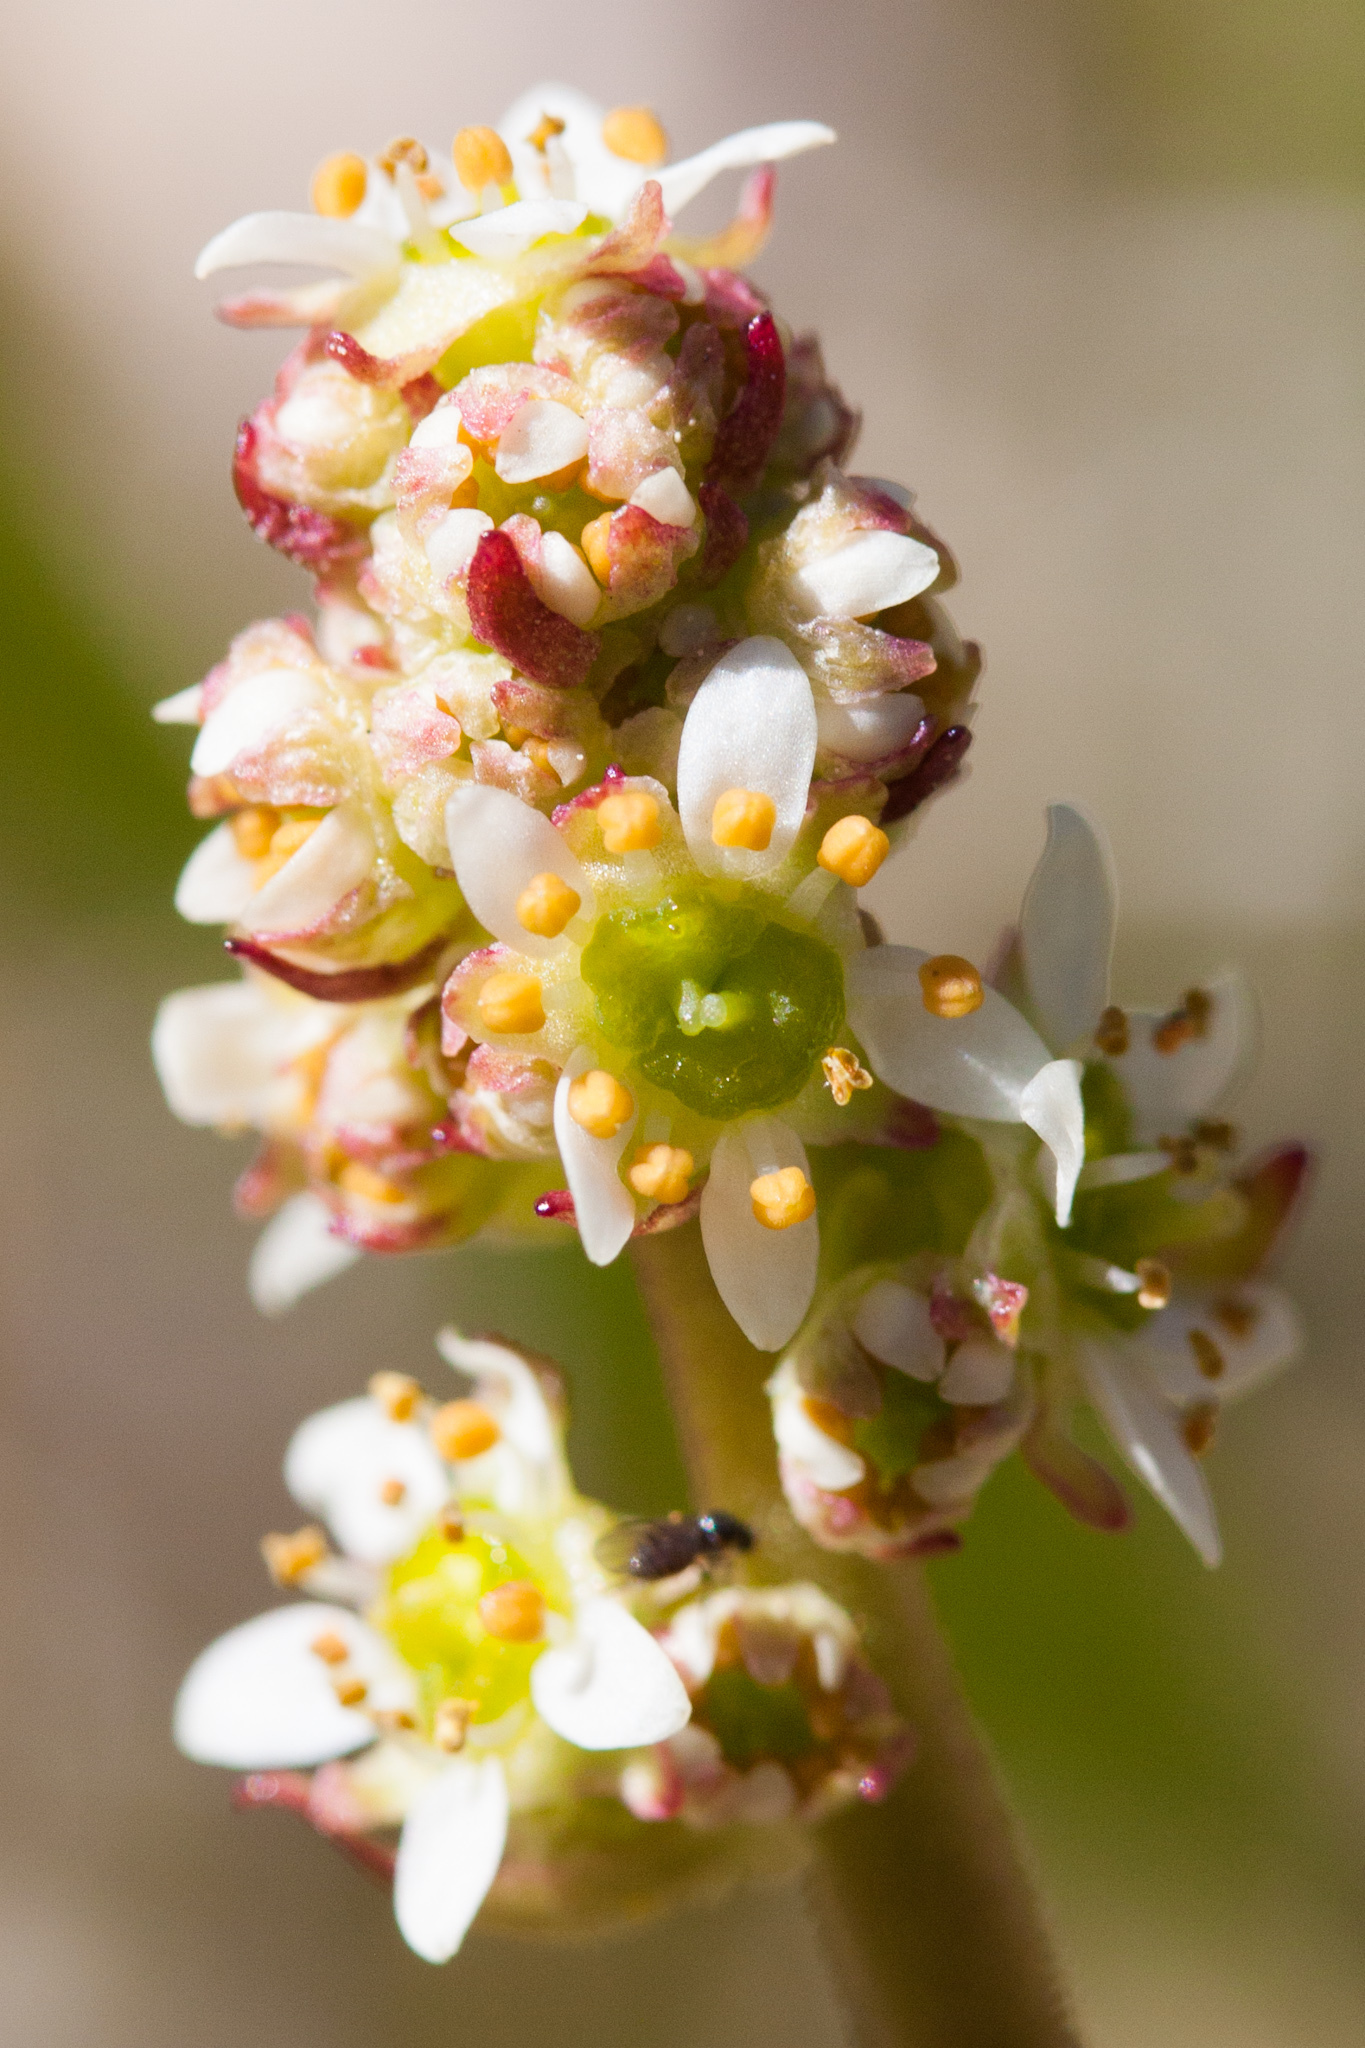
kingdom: Plantae
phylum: Tracheophyta
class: Magnoliopsida
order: Saxifragales
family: Saxifragaceae
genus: Micranthes
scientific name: Micranthes oregana
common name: Bog saxifrage
